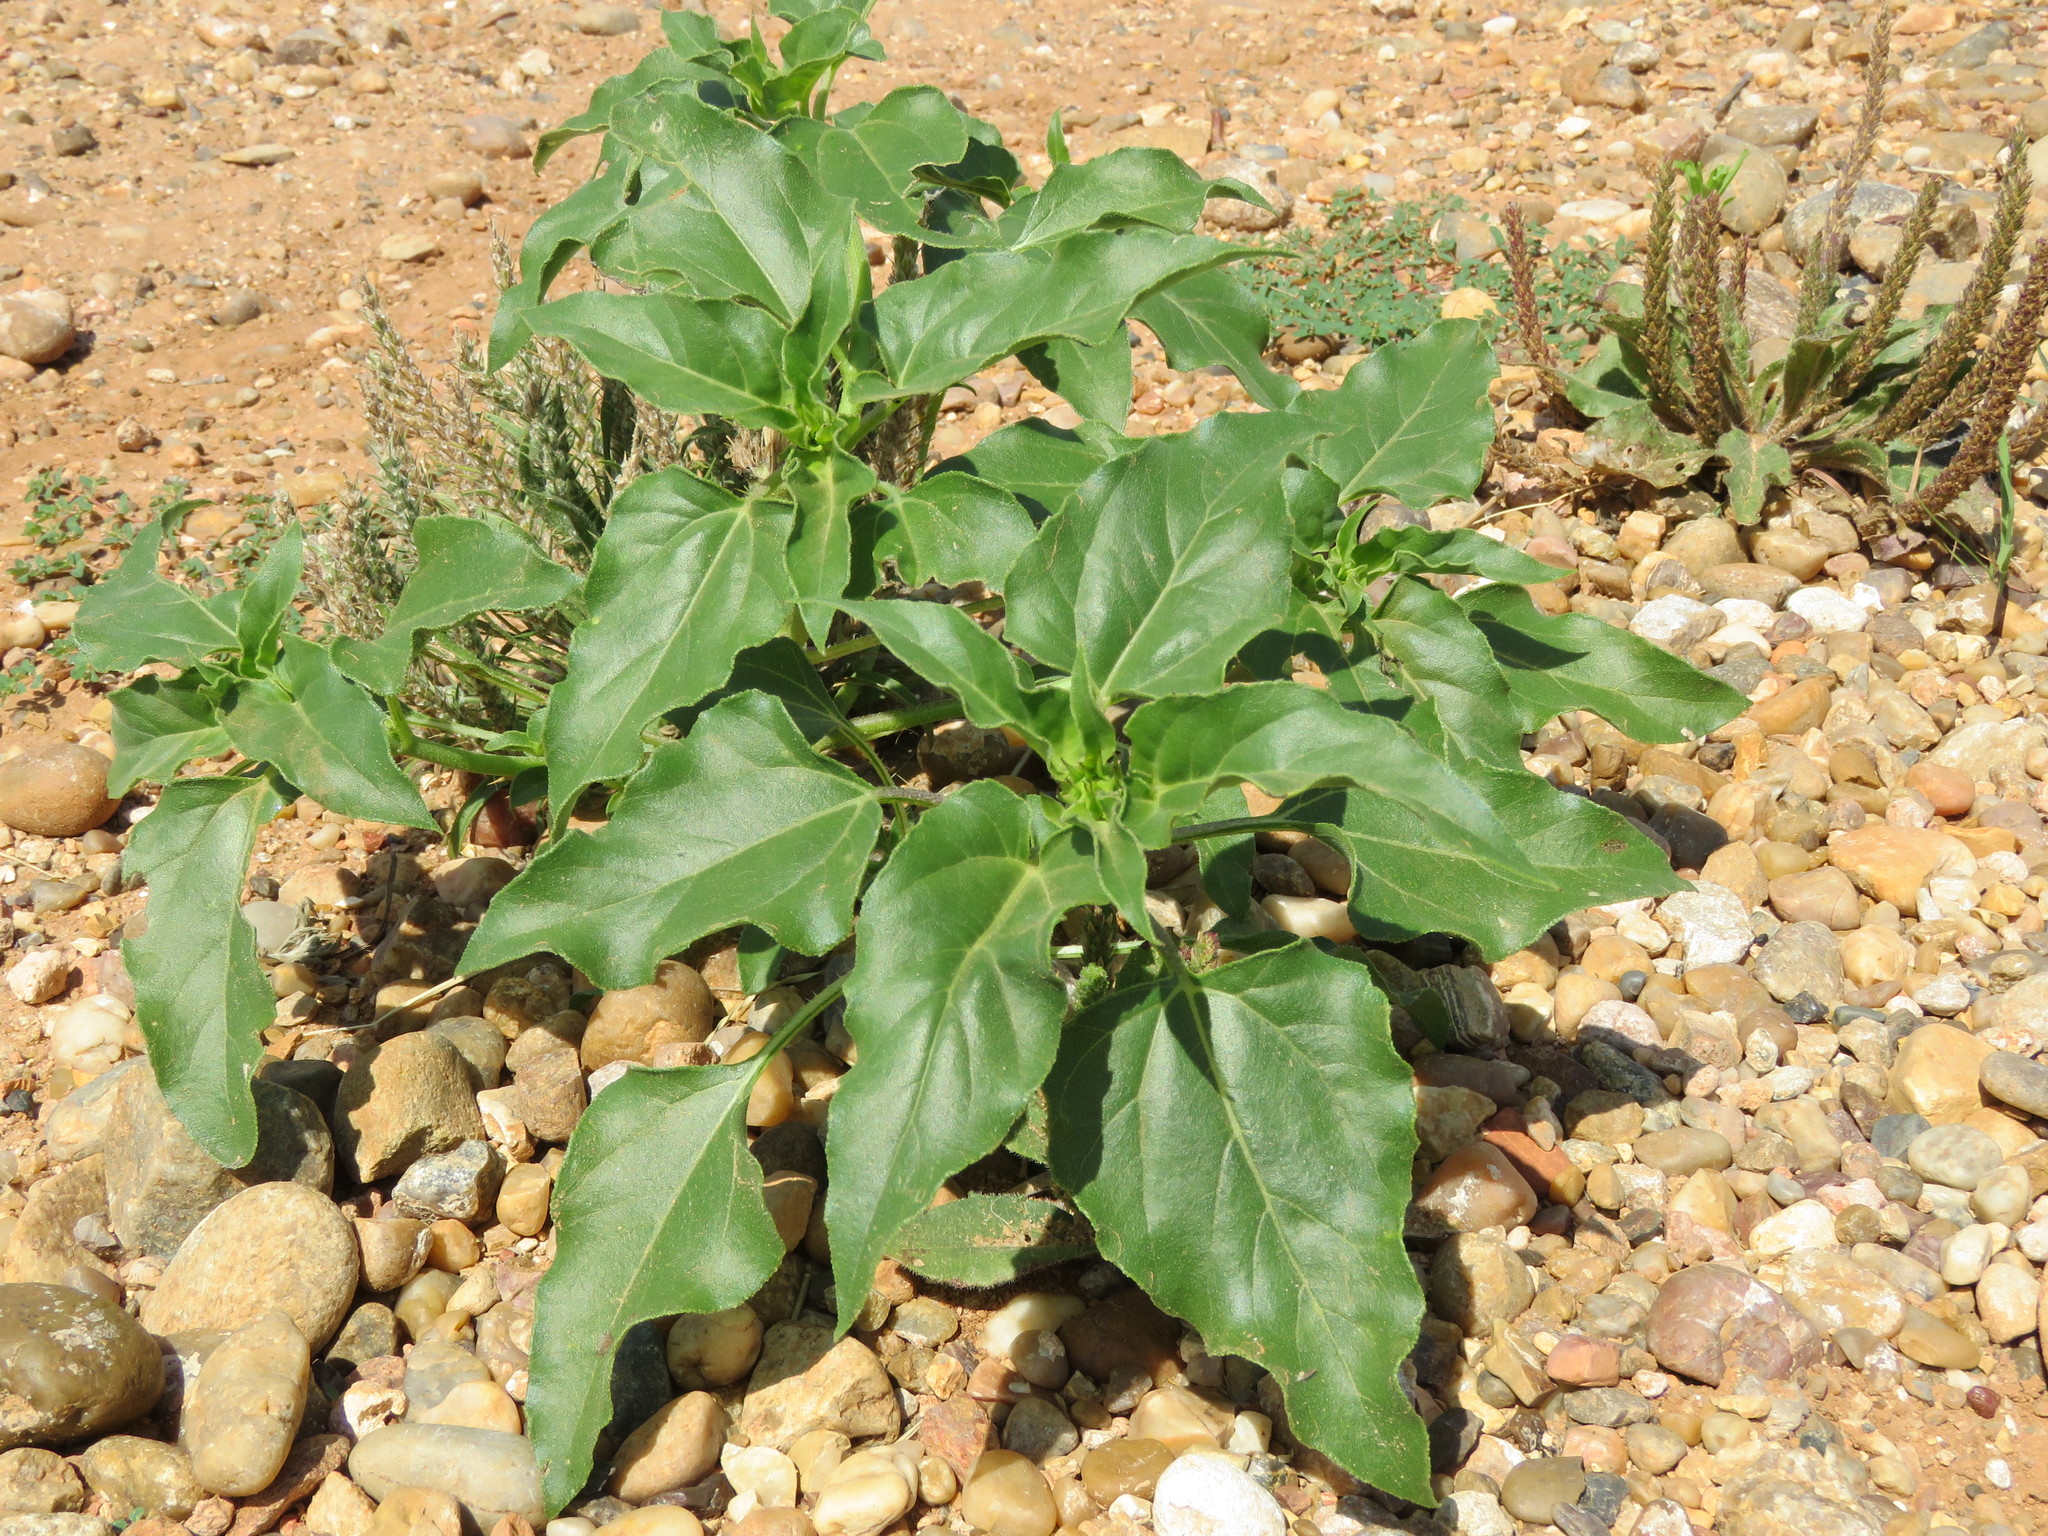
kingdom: Plantae
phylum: Tracheophyta
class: Magnoliopsida
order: Asterales
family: Asteraceae
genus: Helianthus
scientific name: Helianthus petiolaris
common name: Lesser sunflower
